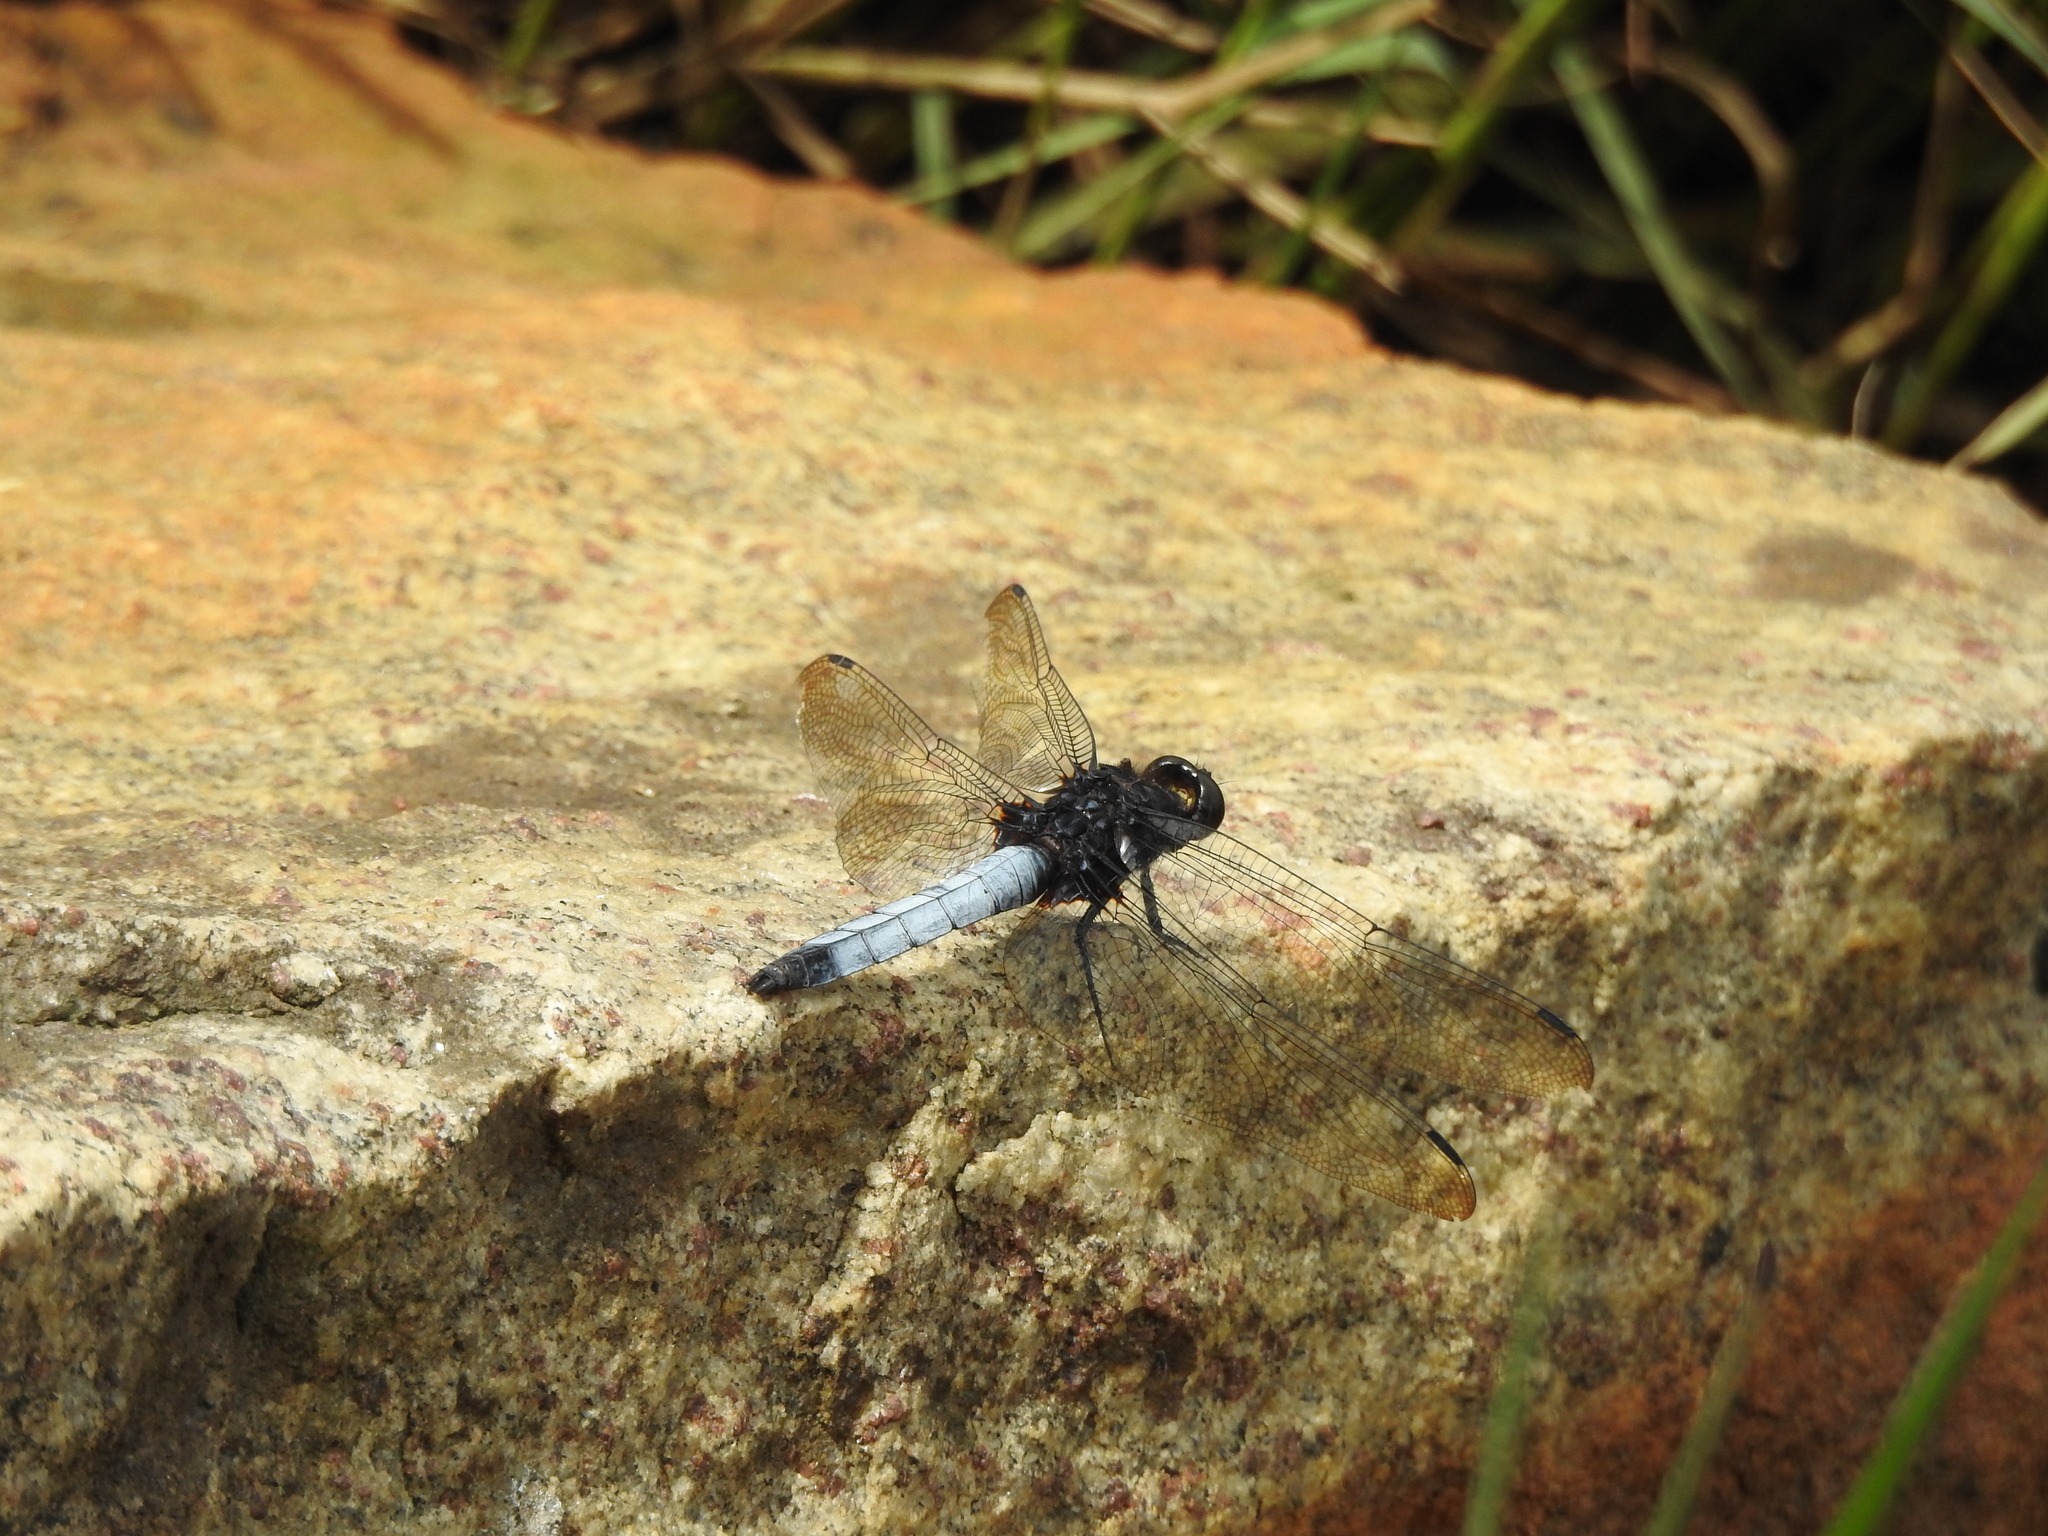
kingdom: Animalia
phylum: Arthropoda
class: Insecta
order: Odonata
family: Libellulidae
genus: Orthetrum
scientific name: Orthetrum triangulare
